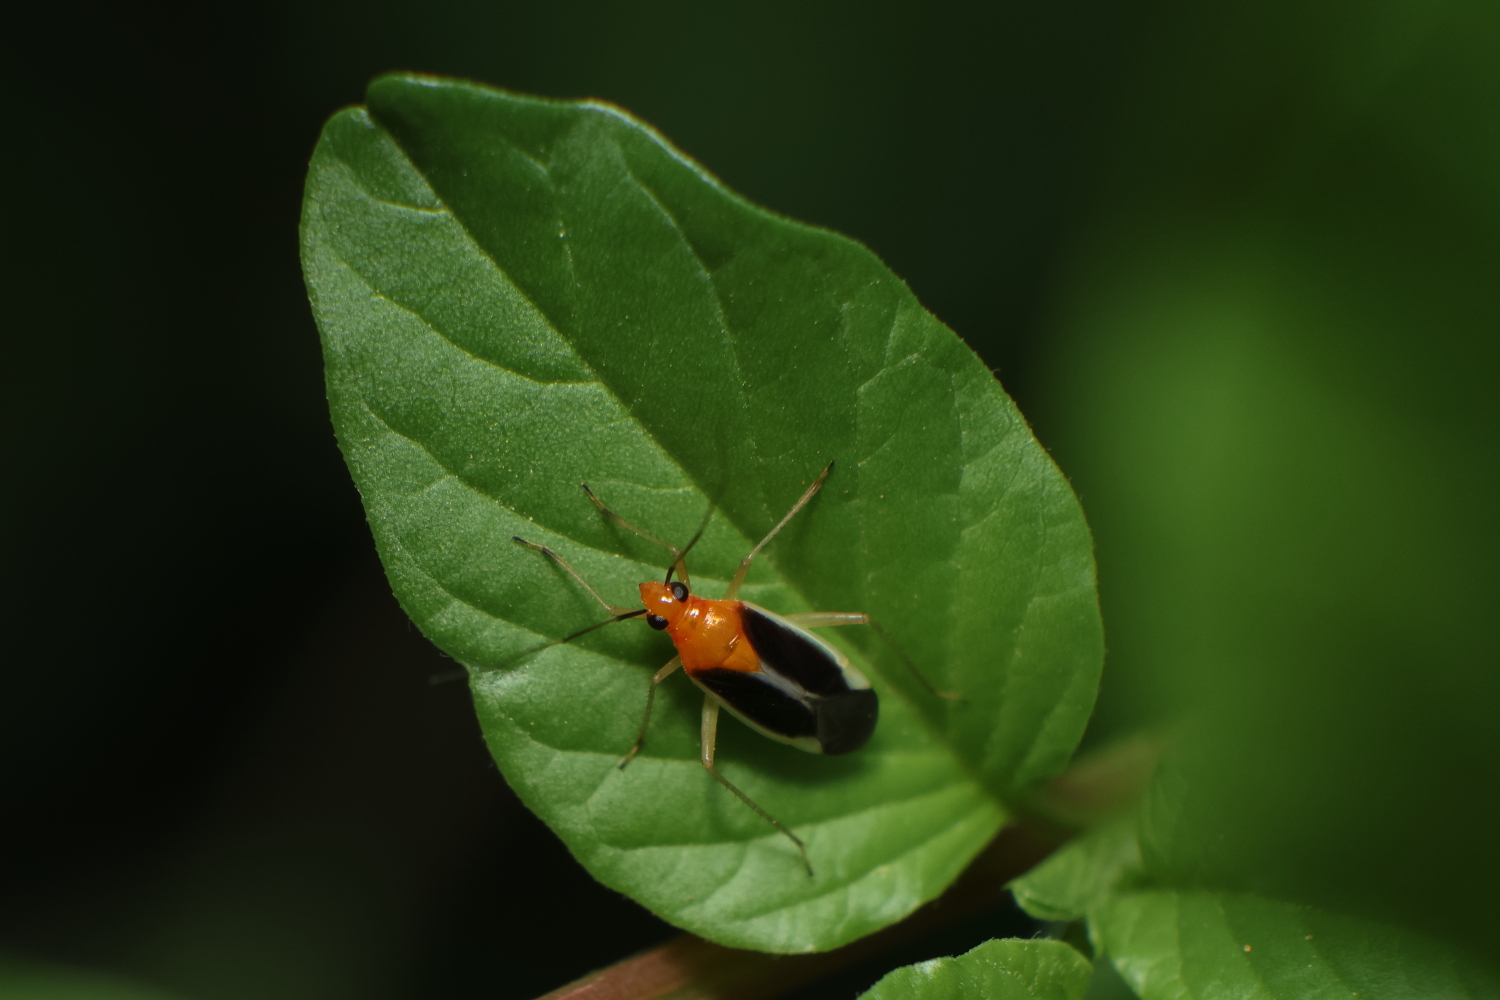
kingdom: Animalia
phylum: Arthropoda
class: Insecta
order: Hemiptera
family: Miridae
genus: Ganocapsus
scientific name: Ganocapsus filiformis
